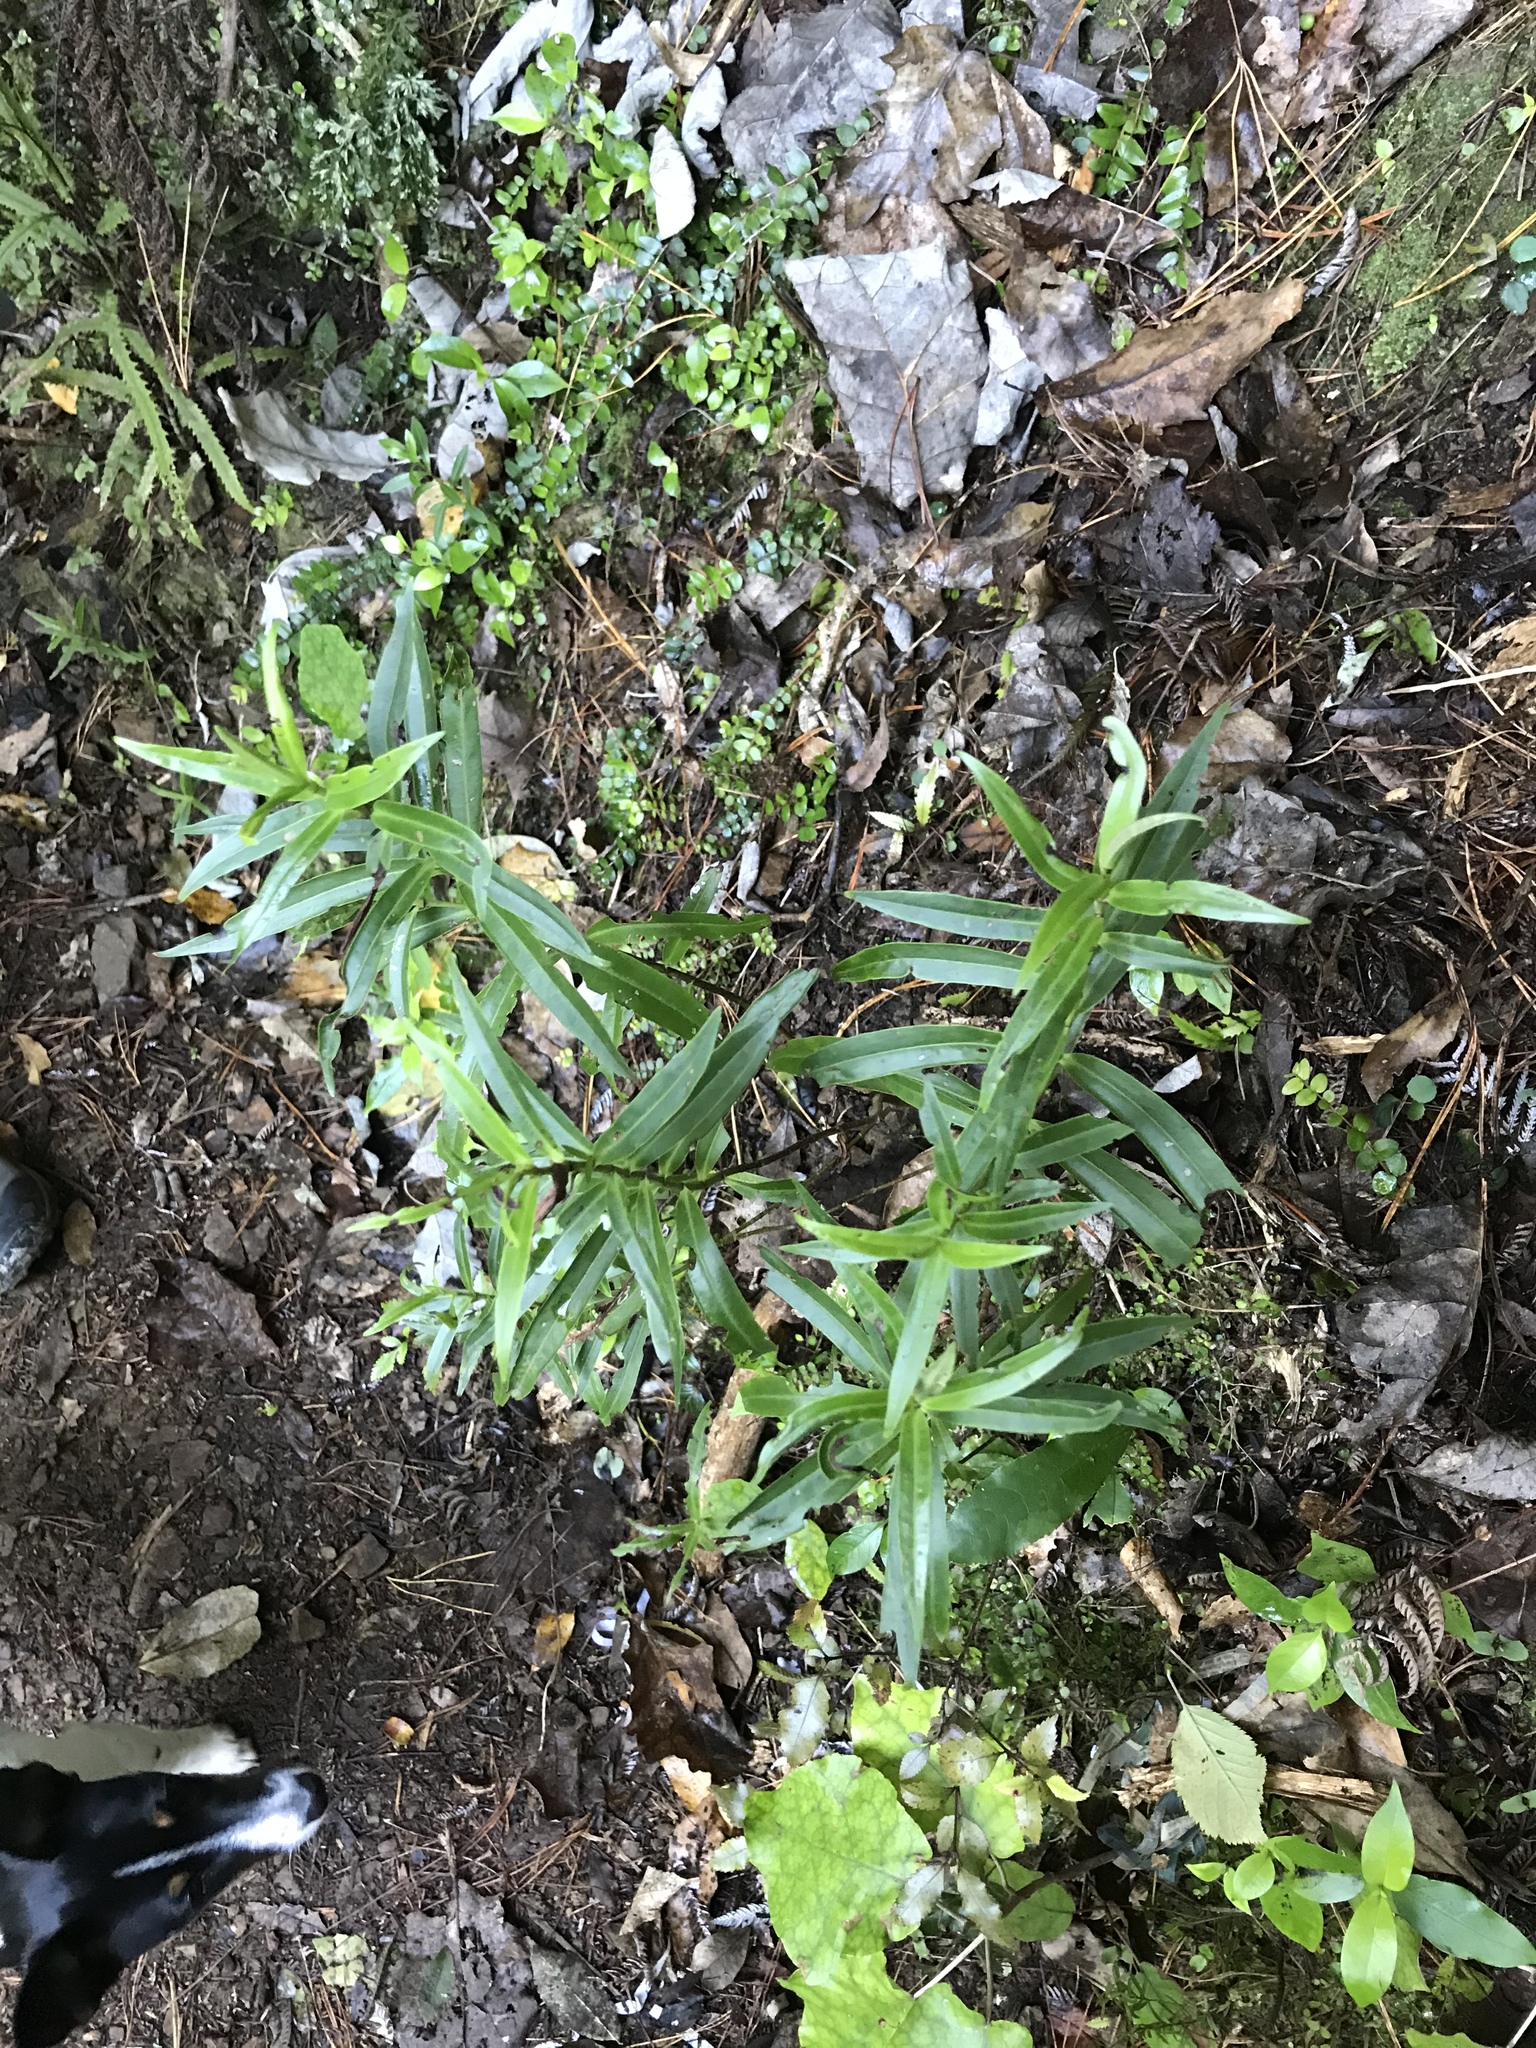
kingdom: Plantae
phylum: Tracheophyta
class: Magnoliopsida
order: Lamiales
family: Plantaginaceae
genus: Veronica
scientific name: Veronica stricta
